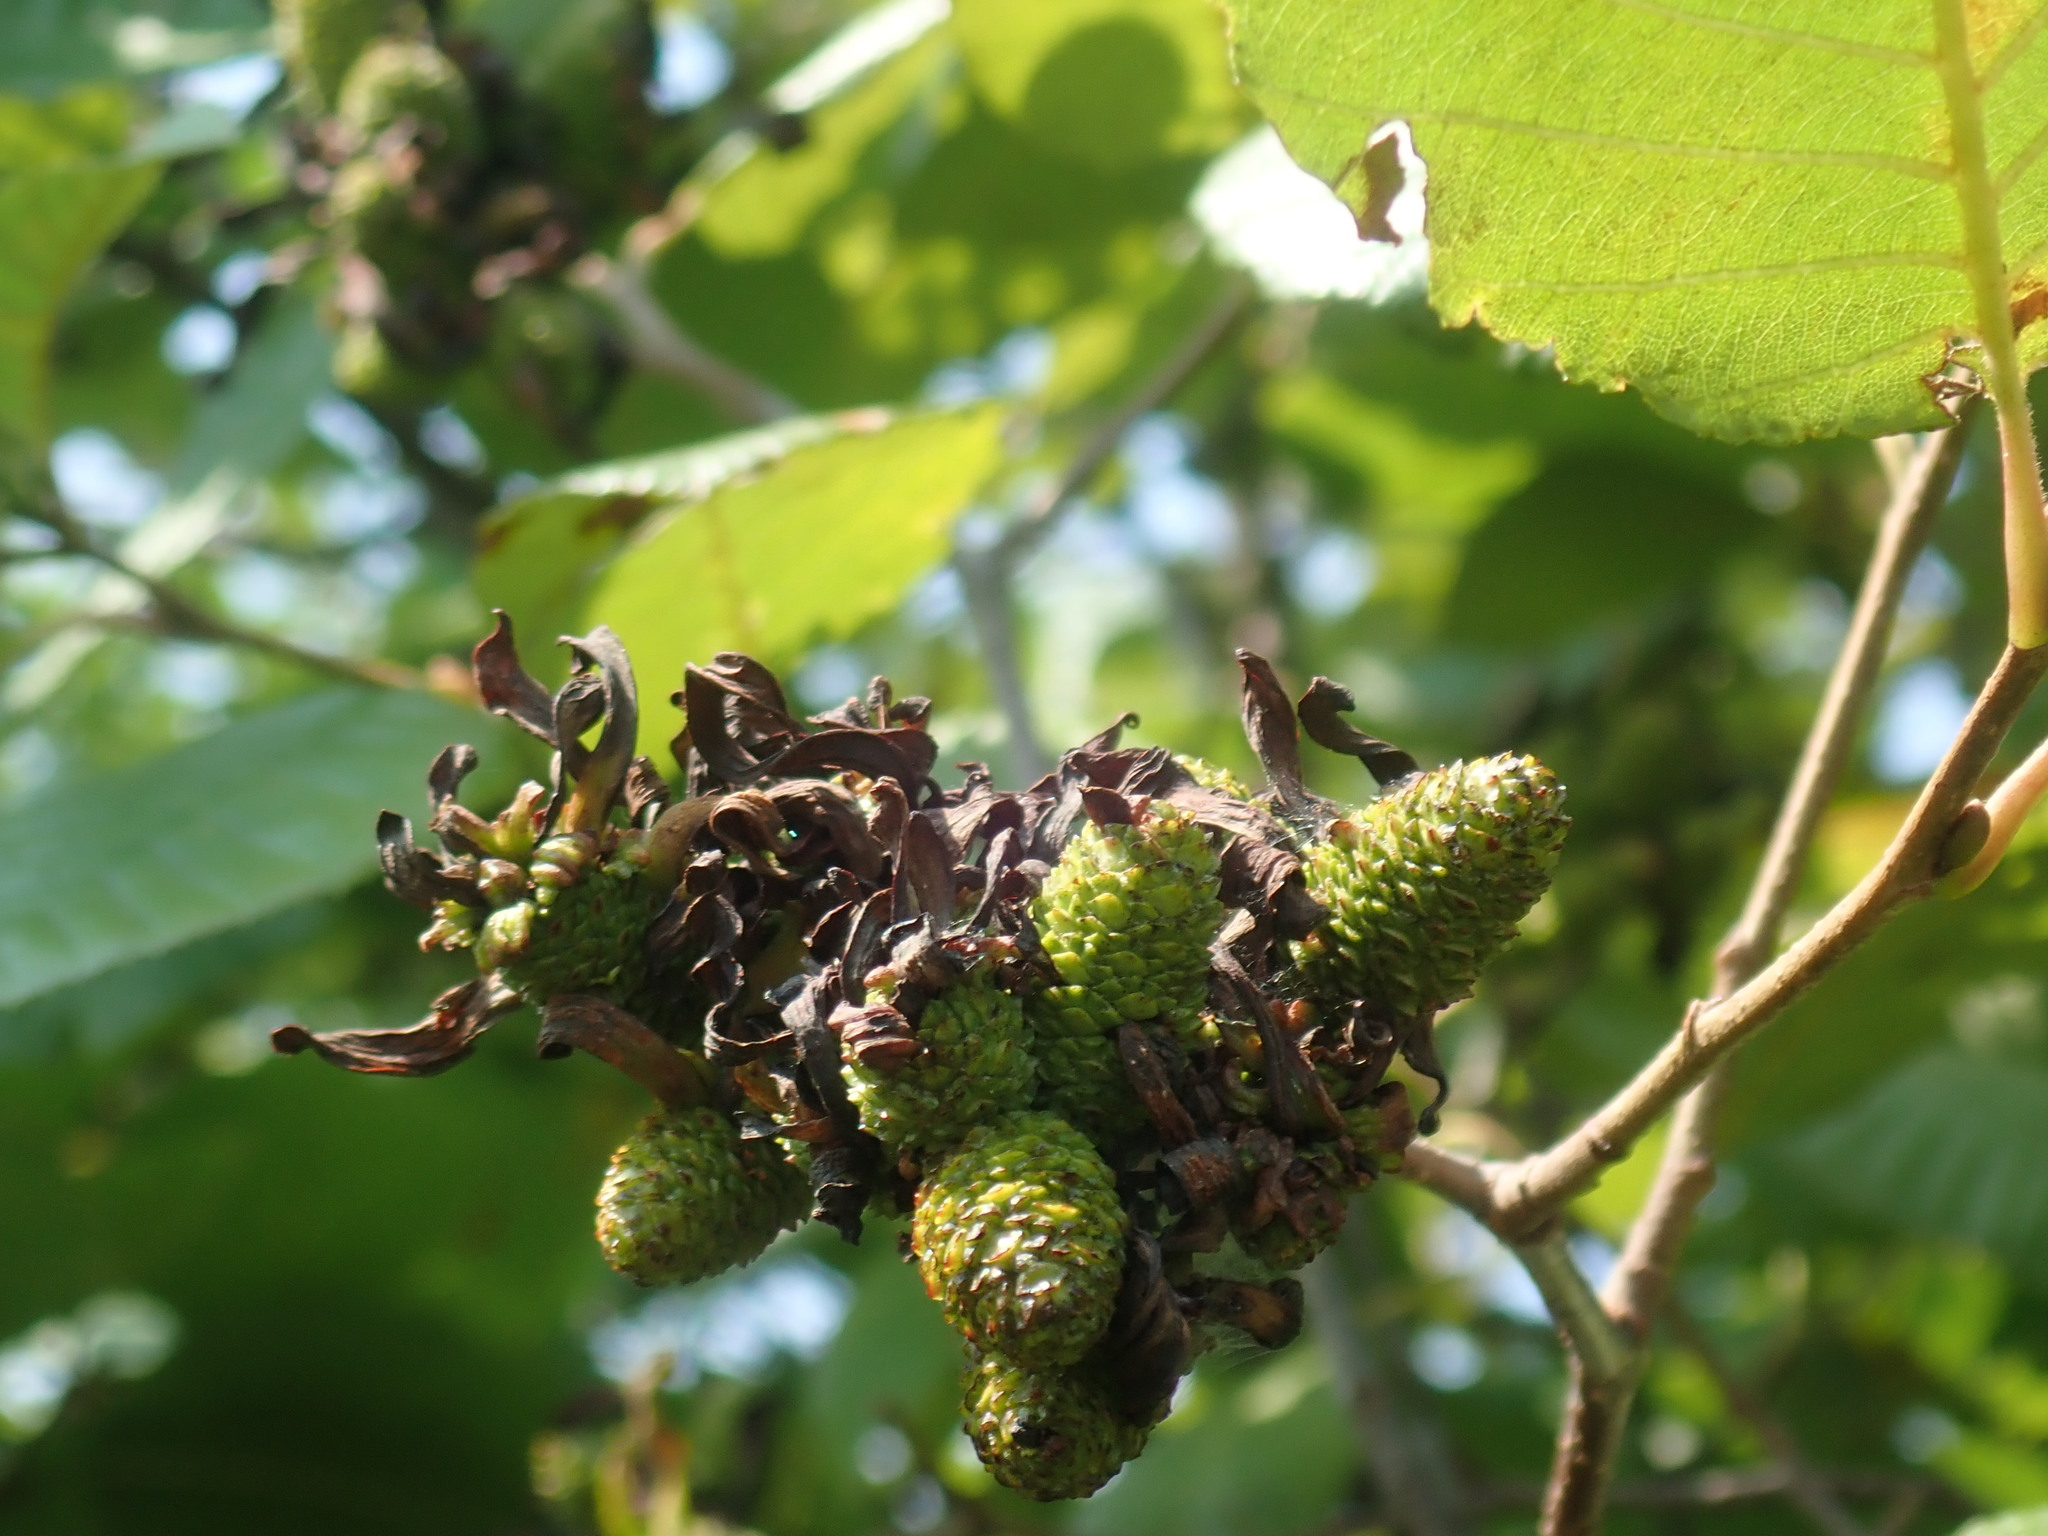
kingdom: Fungi
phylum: Ascomycota
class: Taphrinomycetes
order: Taphrinales
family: Taphrinaceae
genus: Taphrina
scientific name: Taphrina robinsoniana
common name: Eastern american alder tongue gall fungus
